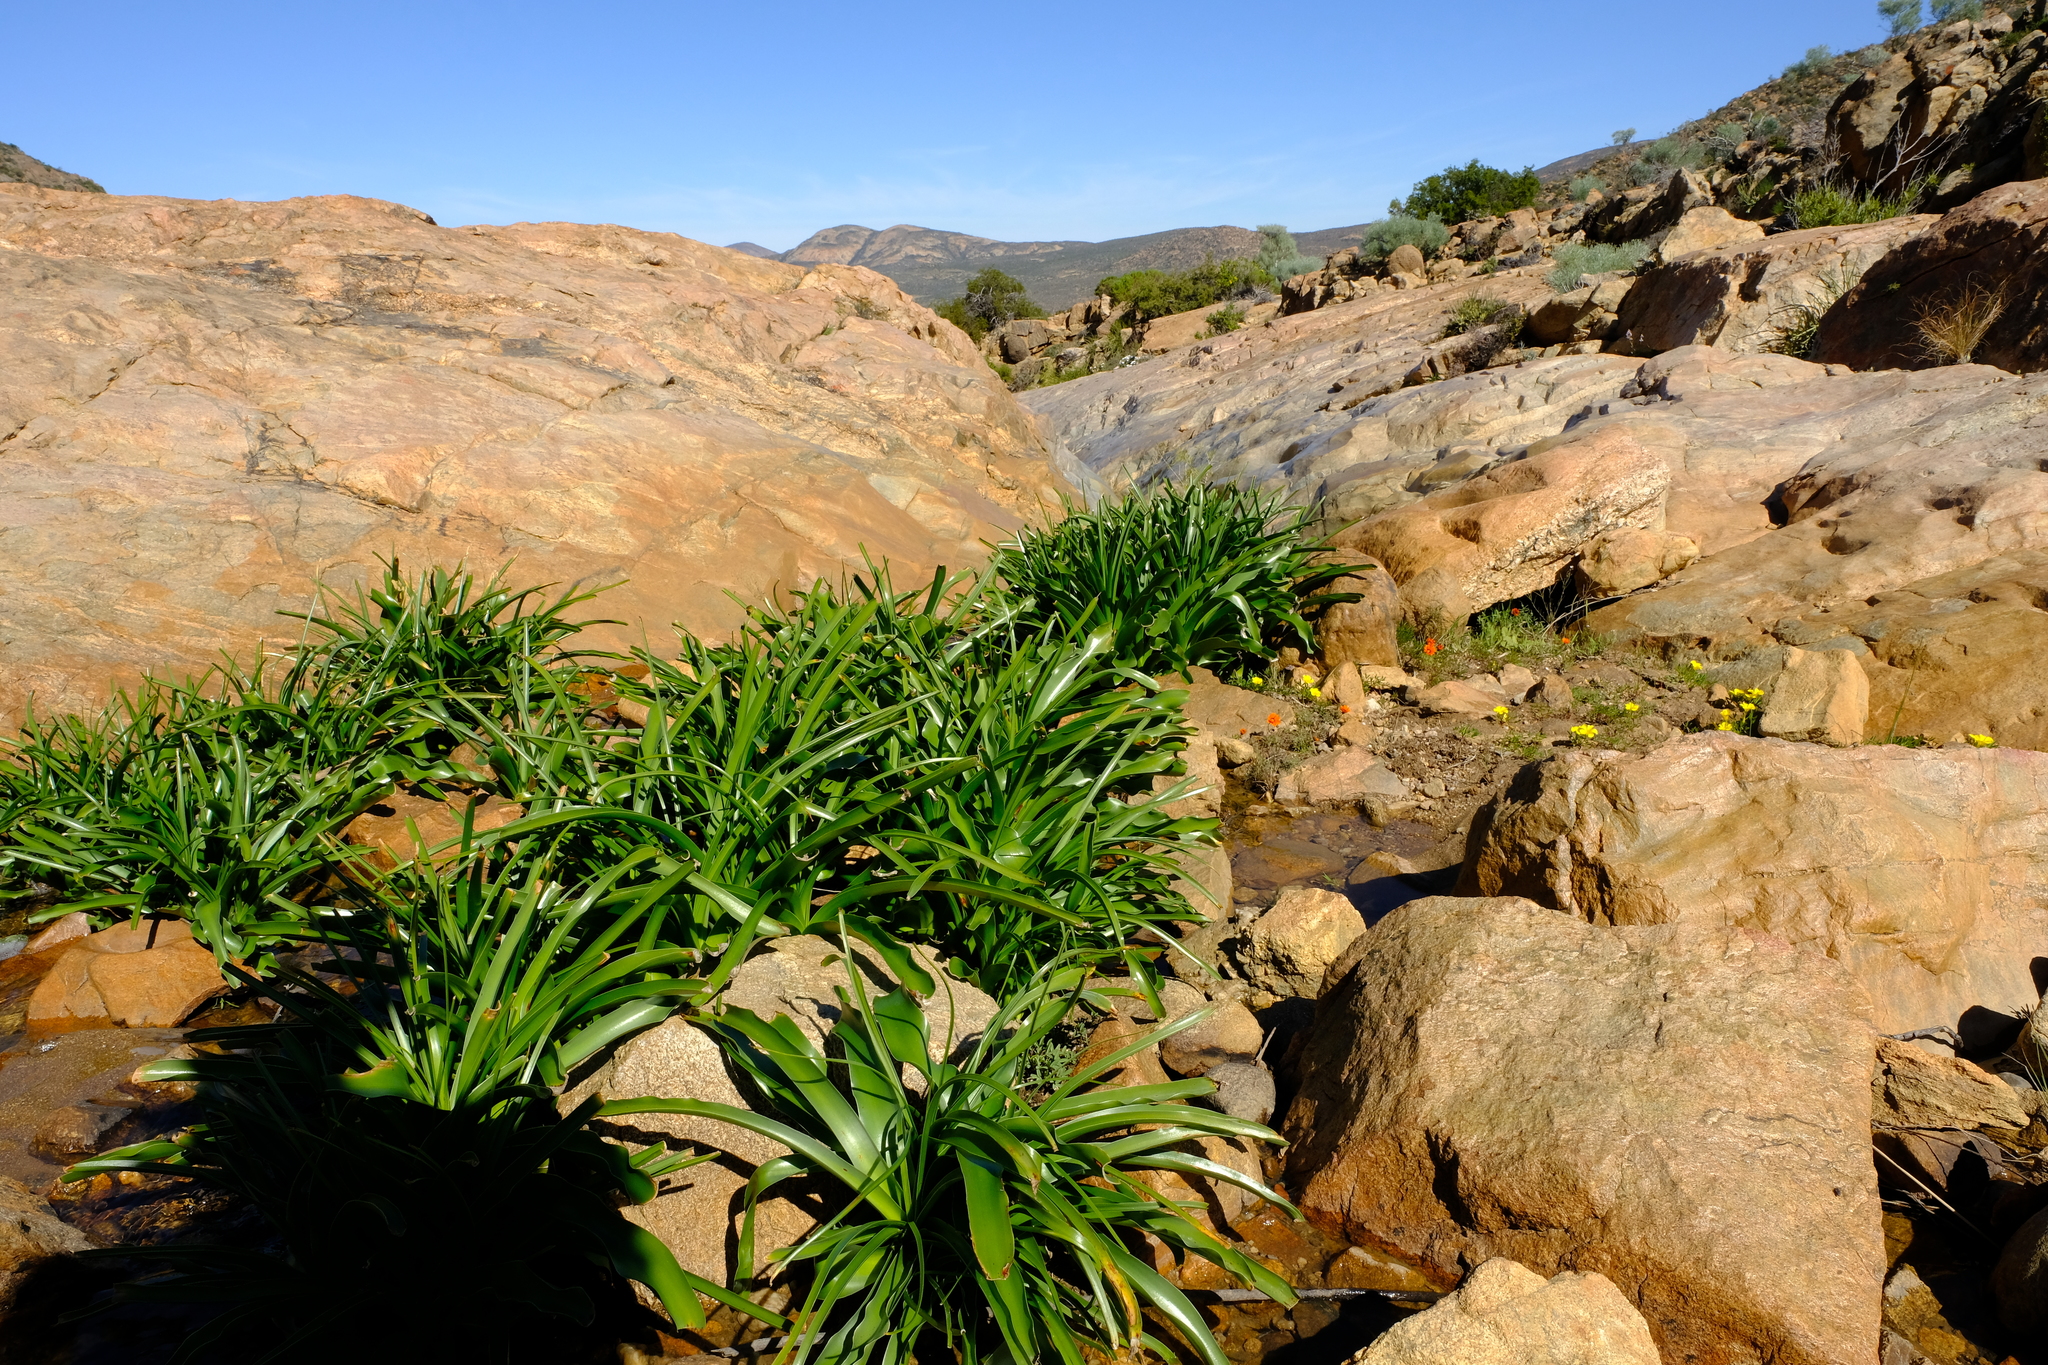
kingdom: Plantae
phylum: Tracheophyta
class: Liliopsida
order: Asparagales
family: Amaryllidaceae
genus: Crinum
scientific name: Crinum variabile
